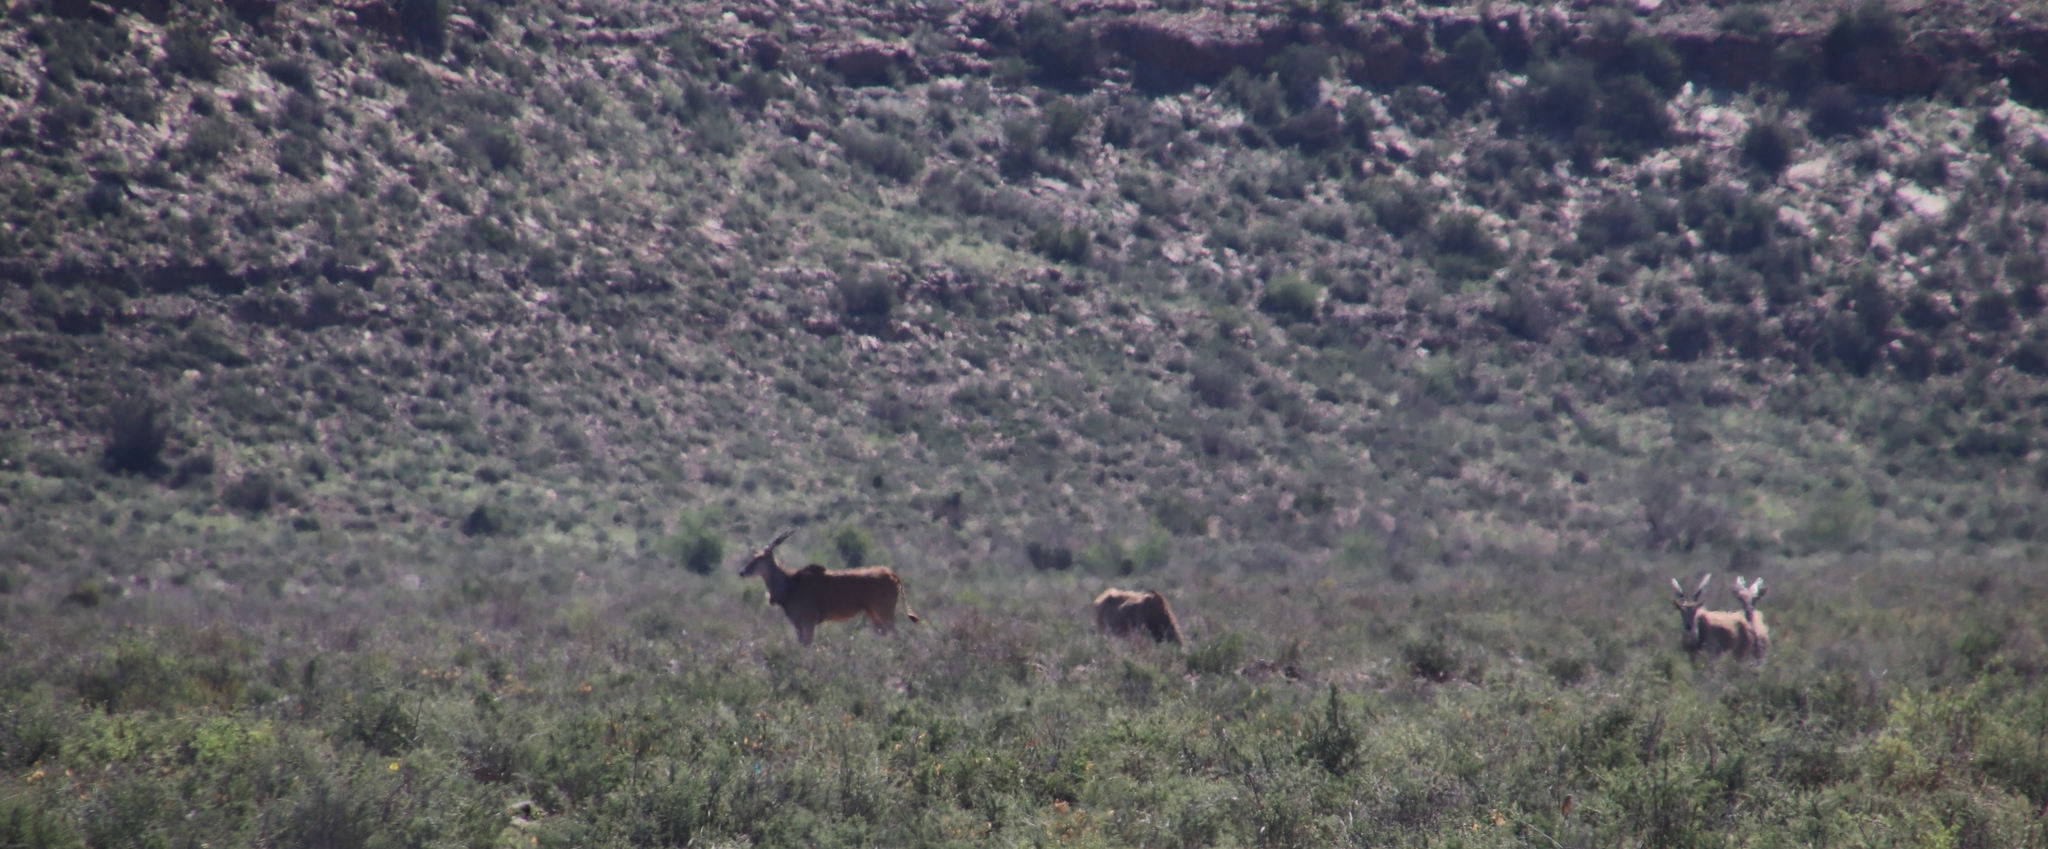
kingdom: Animalia
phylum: Chordata
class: Mammalia
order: Artiodactyla
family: Bovidae
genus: Taurotragus
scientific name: Taurotragus oryx
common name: Common eland
